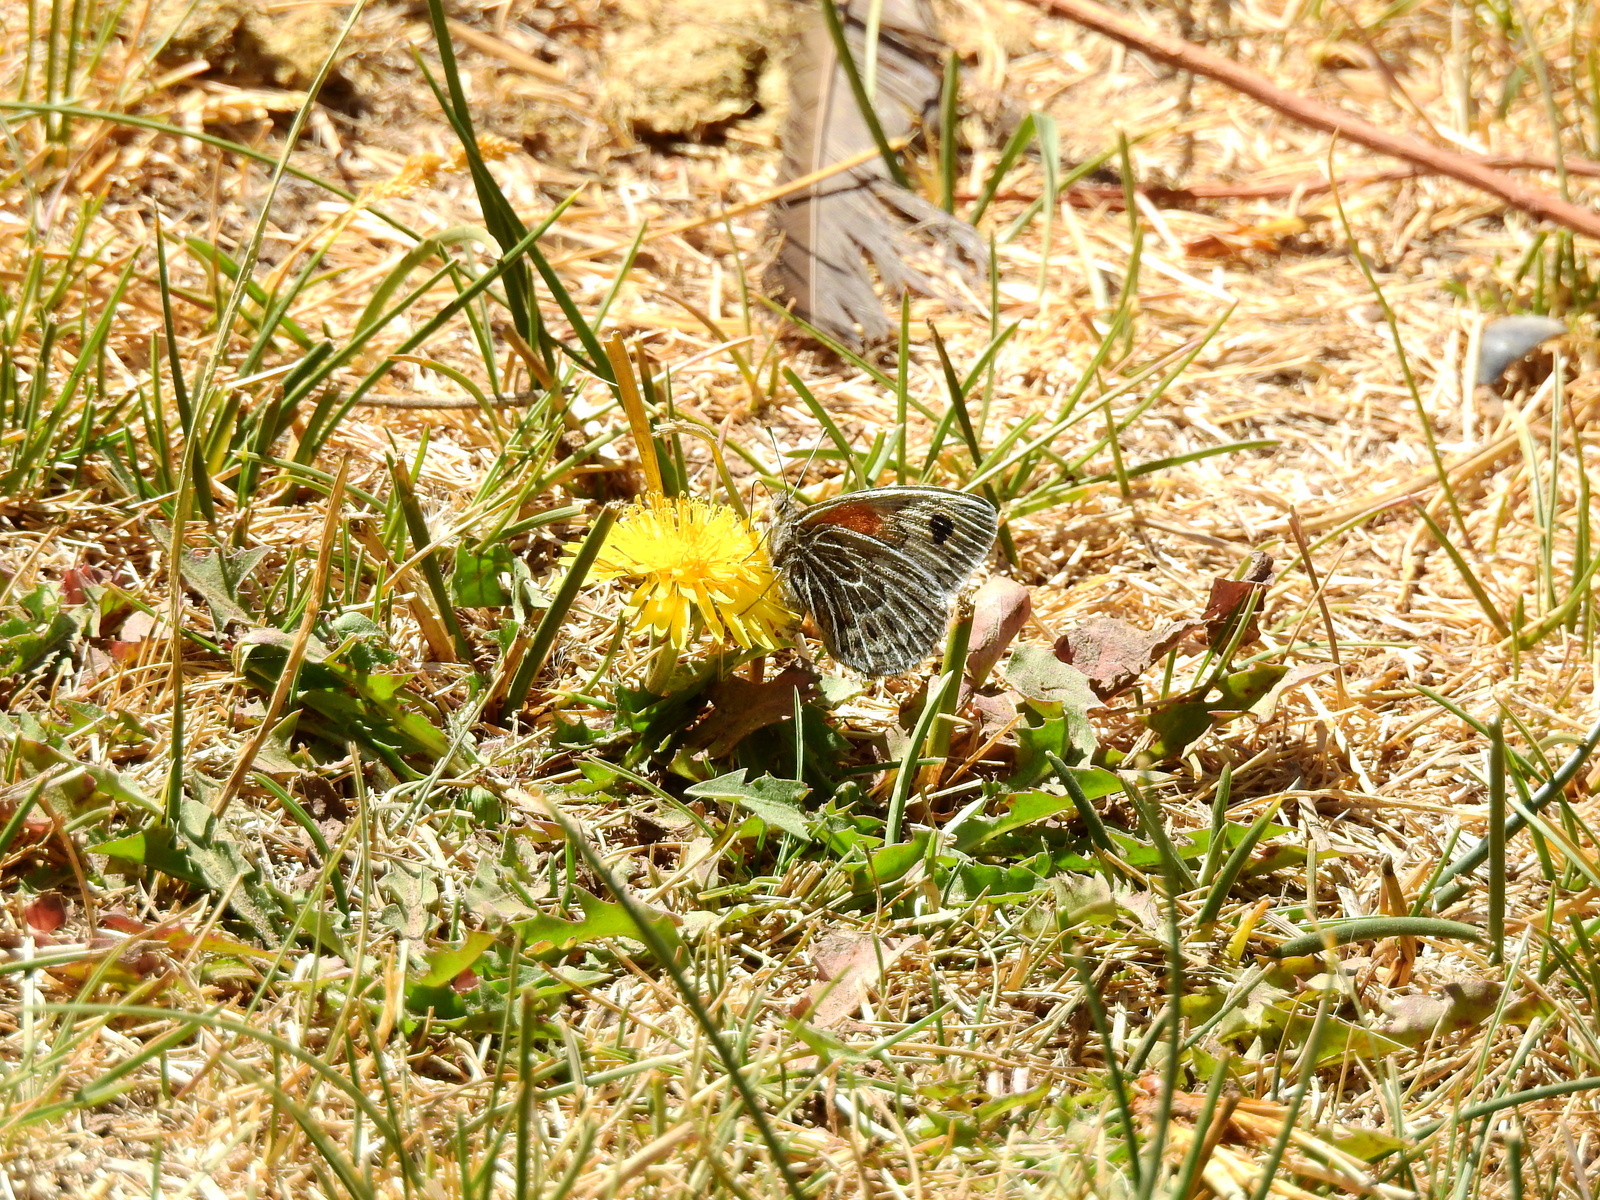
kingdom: Animalia
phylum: Arthropoda
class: Insecta
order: Lepidoptera
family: Nymphalidae
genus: Argyrophorus
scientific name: Argyrophorus argenteus
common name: Silver satyr
